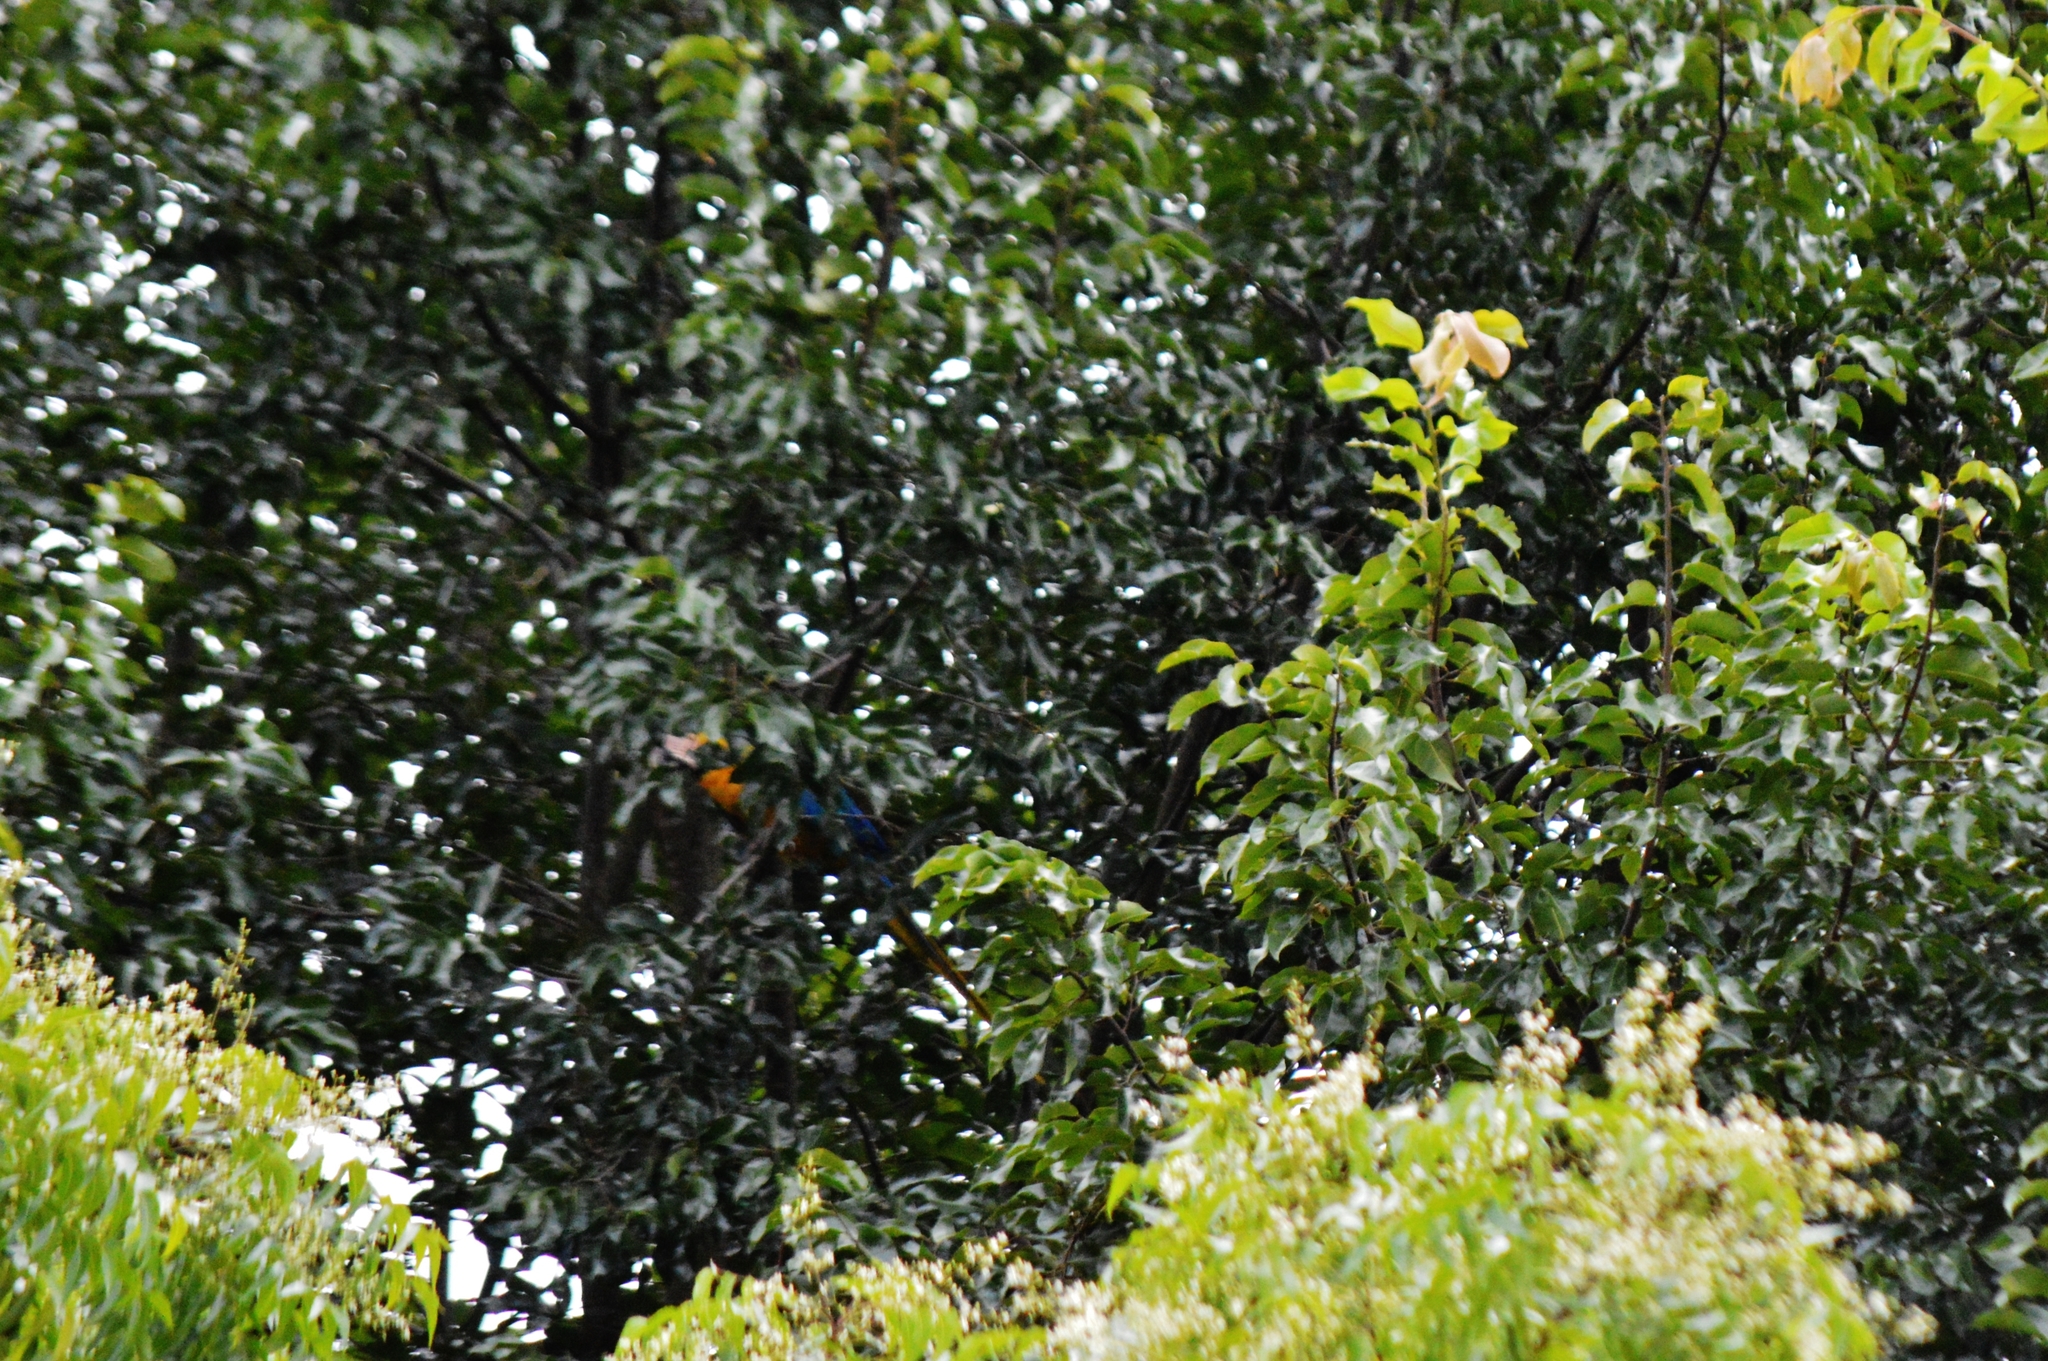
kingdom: Animalia
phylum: Chordata
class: Aves
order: Psittaciformes
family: Psittacidae
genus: Ara
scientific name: Ara ararauna
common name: Blue-and-yellow macaw
